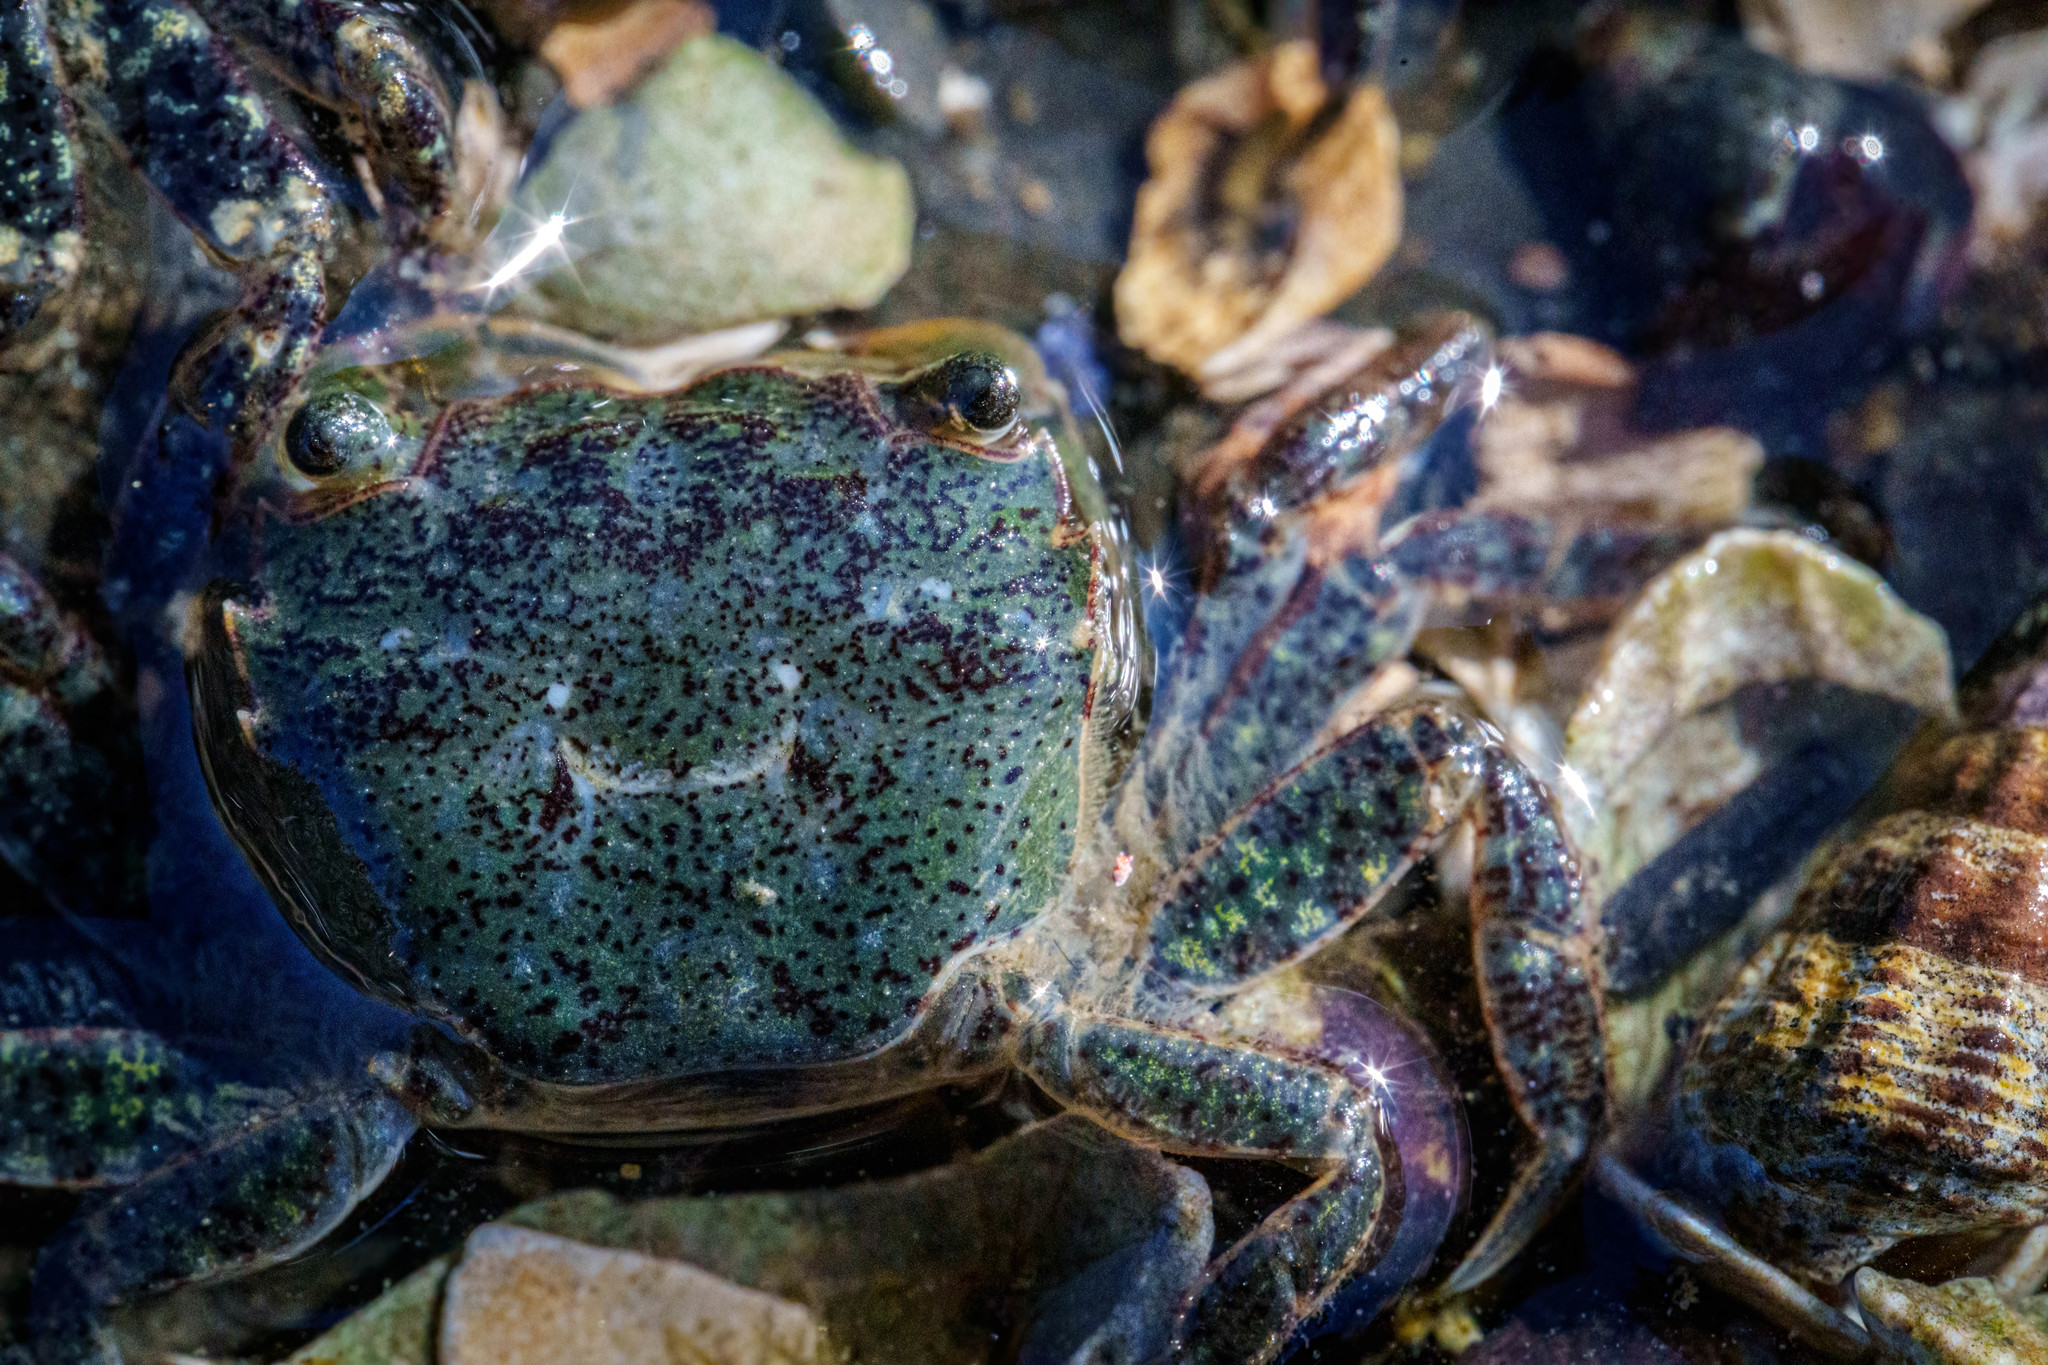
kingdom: Animalia
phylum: Arthropoda
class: Malacostraca
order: Decapoda
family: Varunidae
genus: Hemigrapsus
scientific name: Hemigrapsus oregonensis
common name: Yellow shore crab
